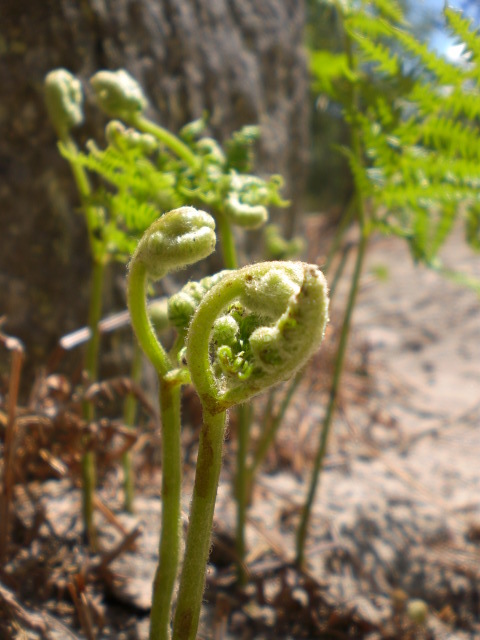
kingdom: Plantae
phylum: Tracheophyta
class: Polypodiopsida
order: Polypodiales
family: Dennstaedtiaceae
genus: Pteridium
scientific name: Pteridium aquilinum
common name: Bracken
